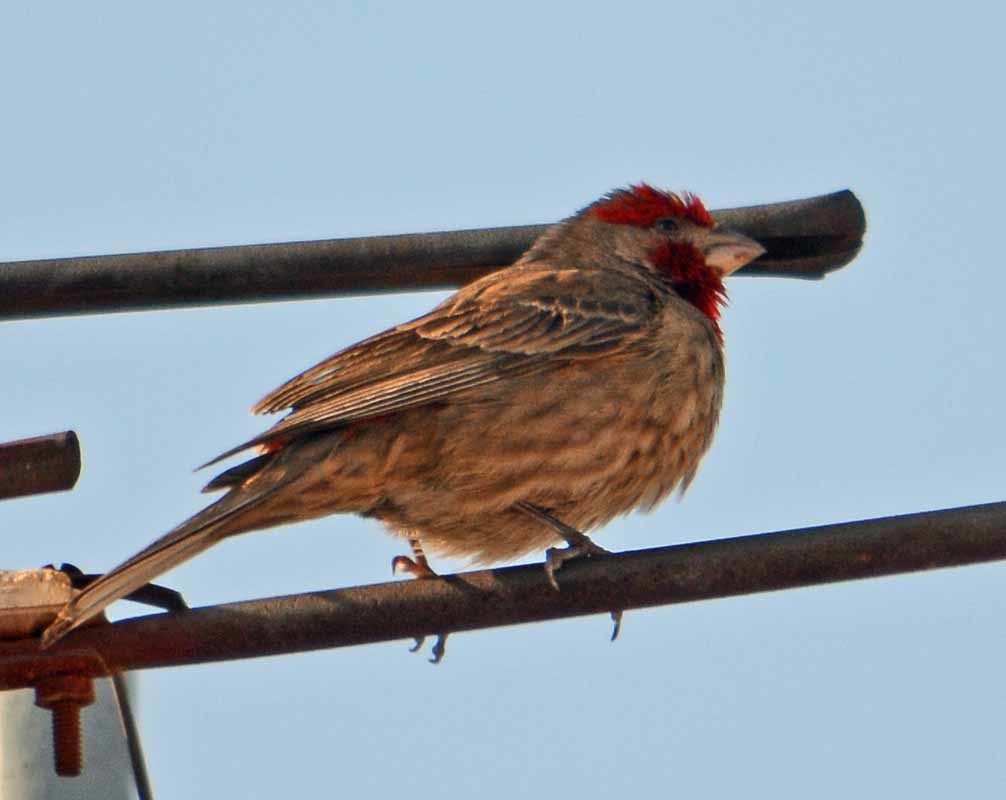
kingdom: Animalia
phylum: Chordata
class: Aves
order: Passeriformes
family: Fringillidae
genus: Haemorhous
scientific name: Haemorhous mexicanus
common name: House finch
